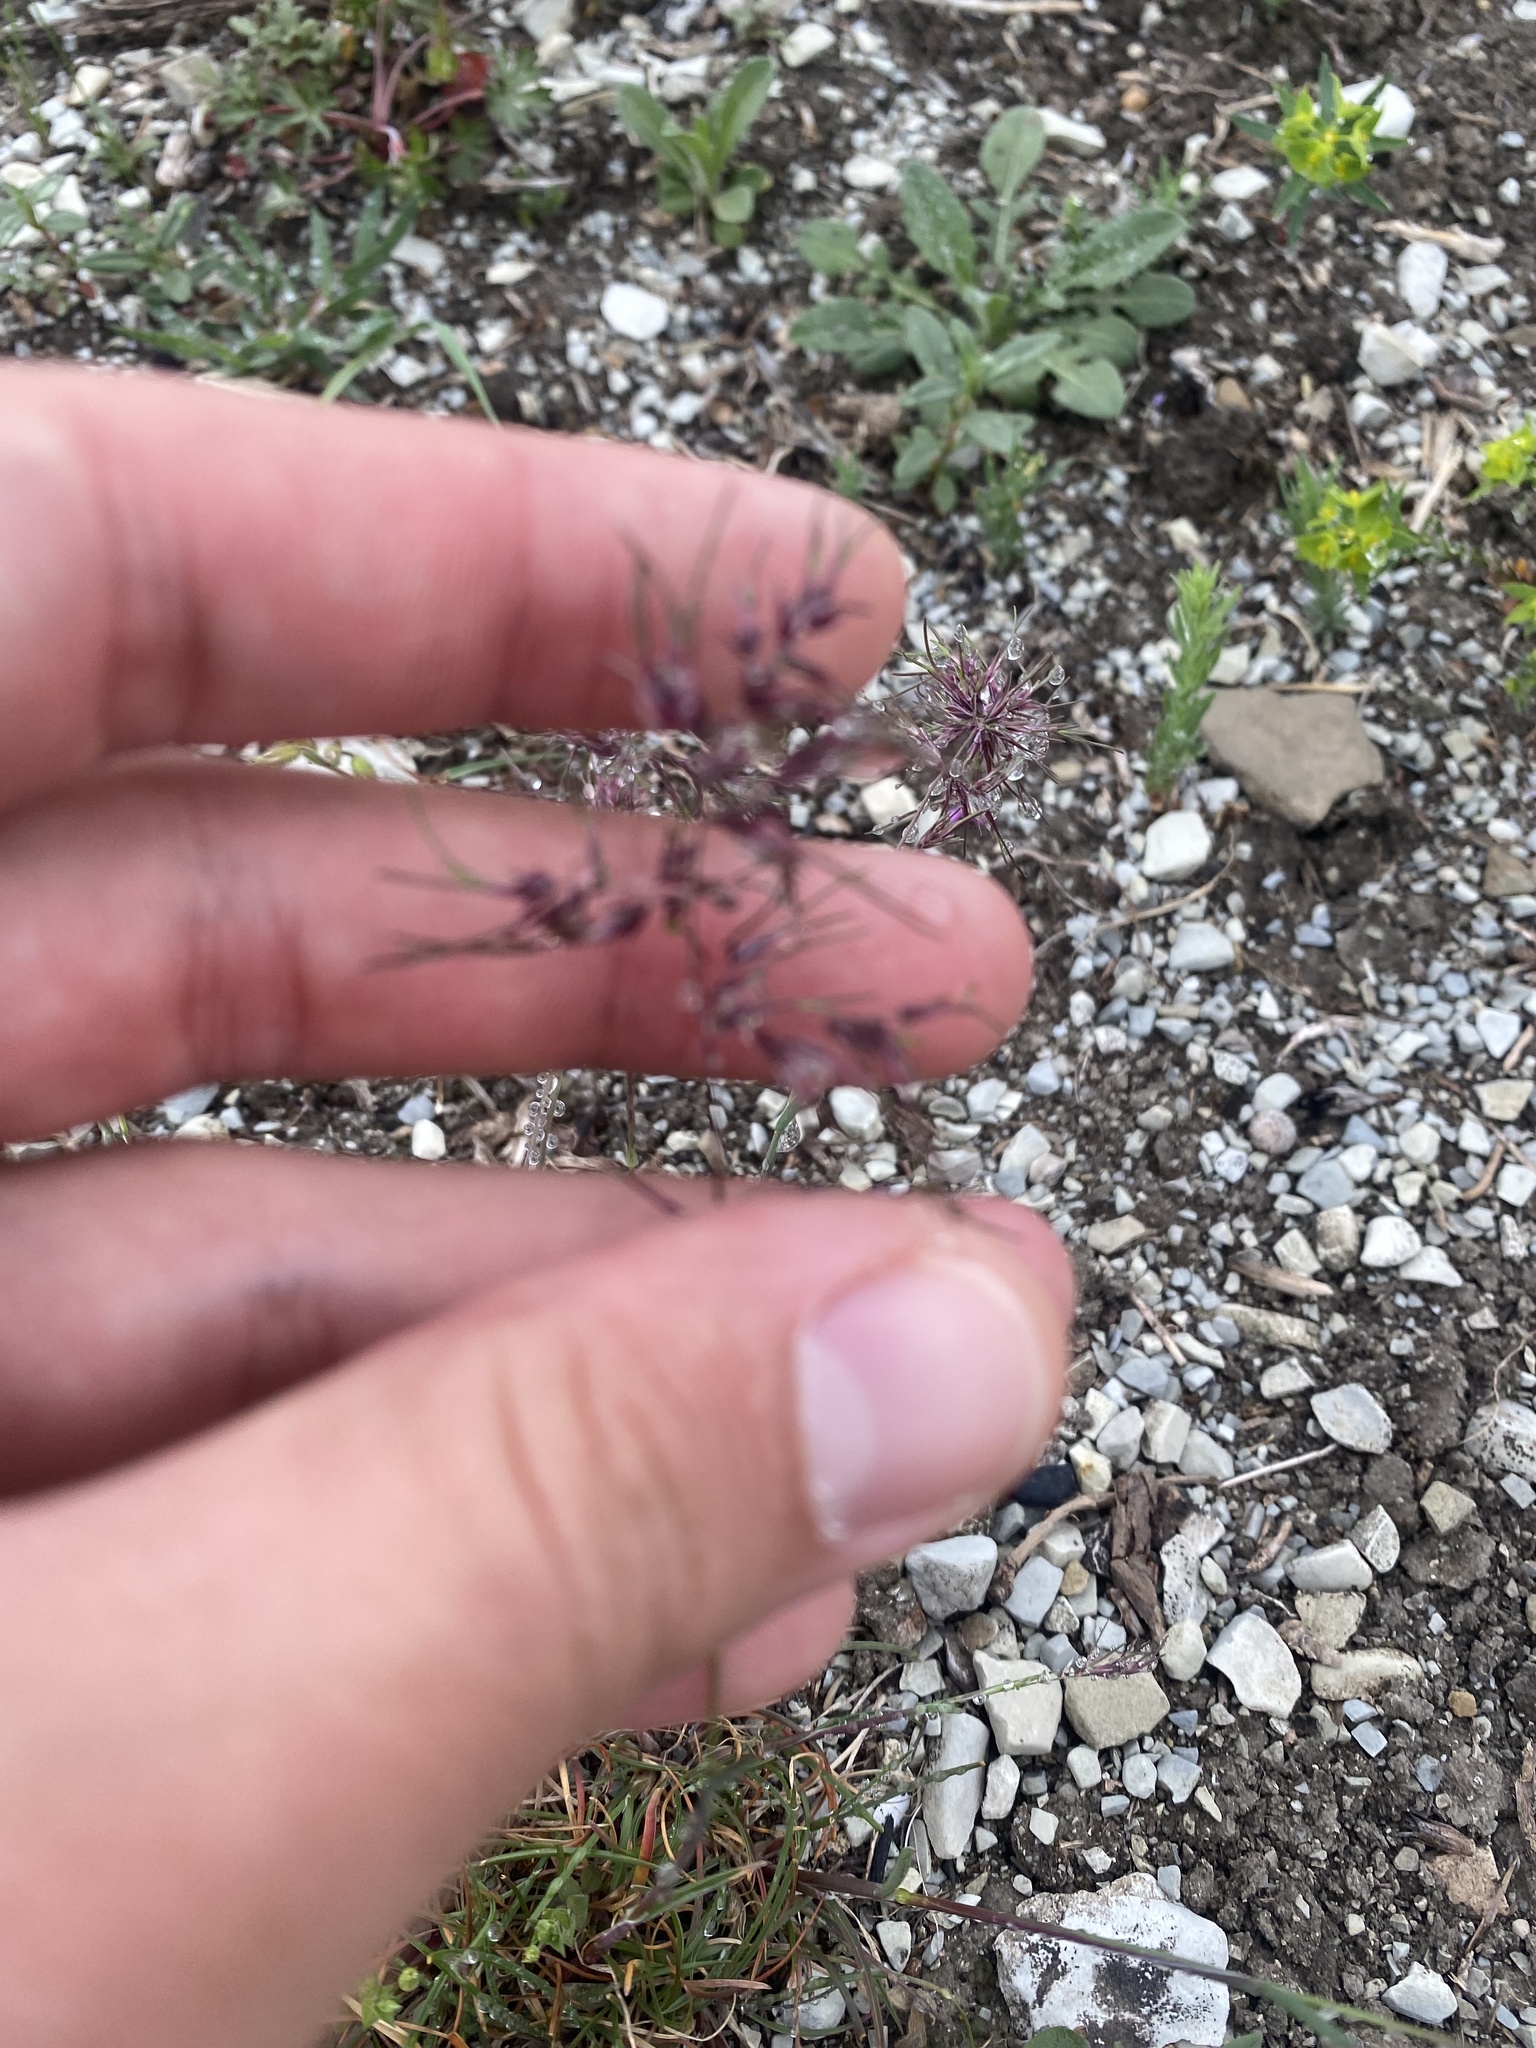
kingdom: Plantae
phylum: Tracheophyta
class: Liliopsida
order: Poales
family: Poaceae
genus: Poa
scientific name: Poa bulbosa
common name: Bulbous bluegrass
